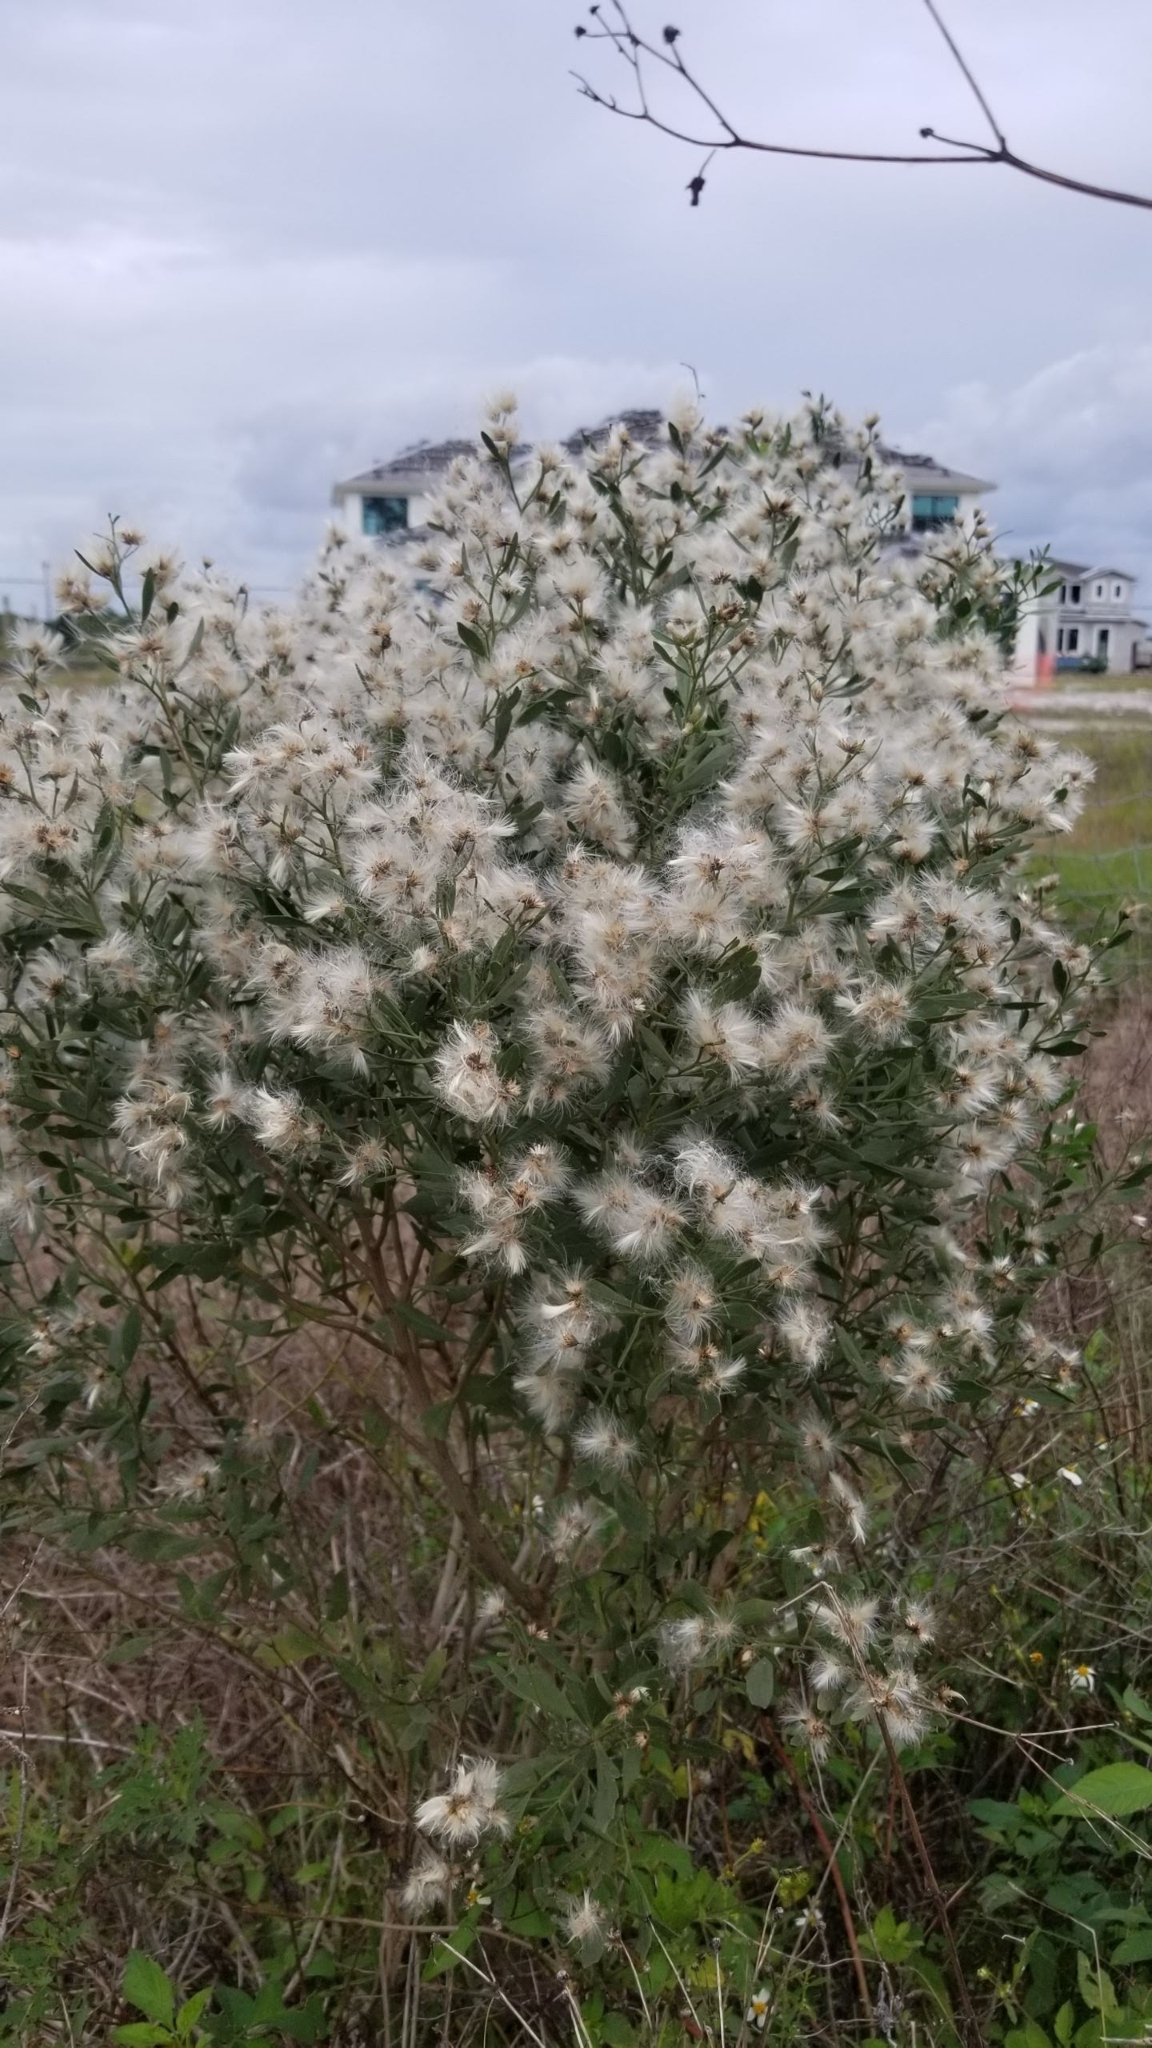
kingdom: Plantae
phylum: Tracheophyta
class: Magnoliopsida
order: Asterales
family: Asteraceae
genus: Baccharis
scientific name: Baccharis halimifolia
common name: Eastern baccharis
